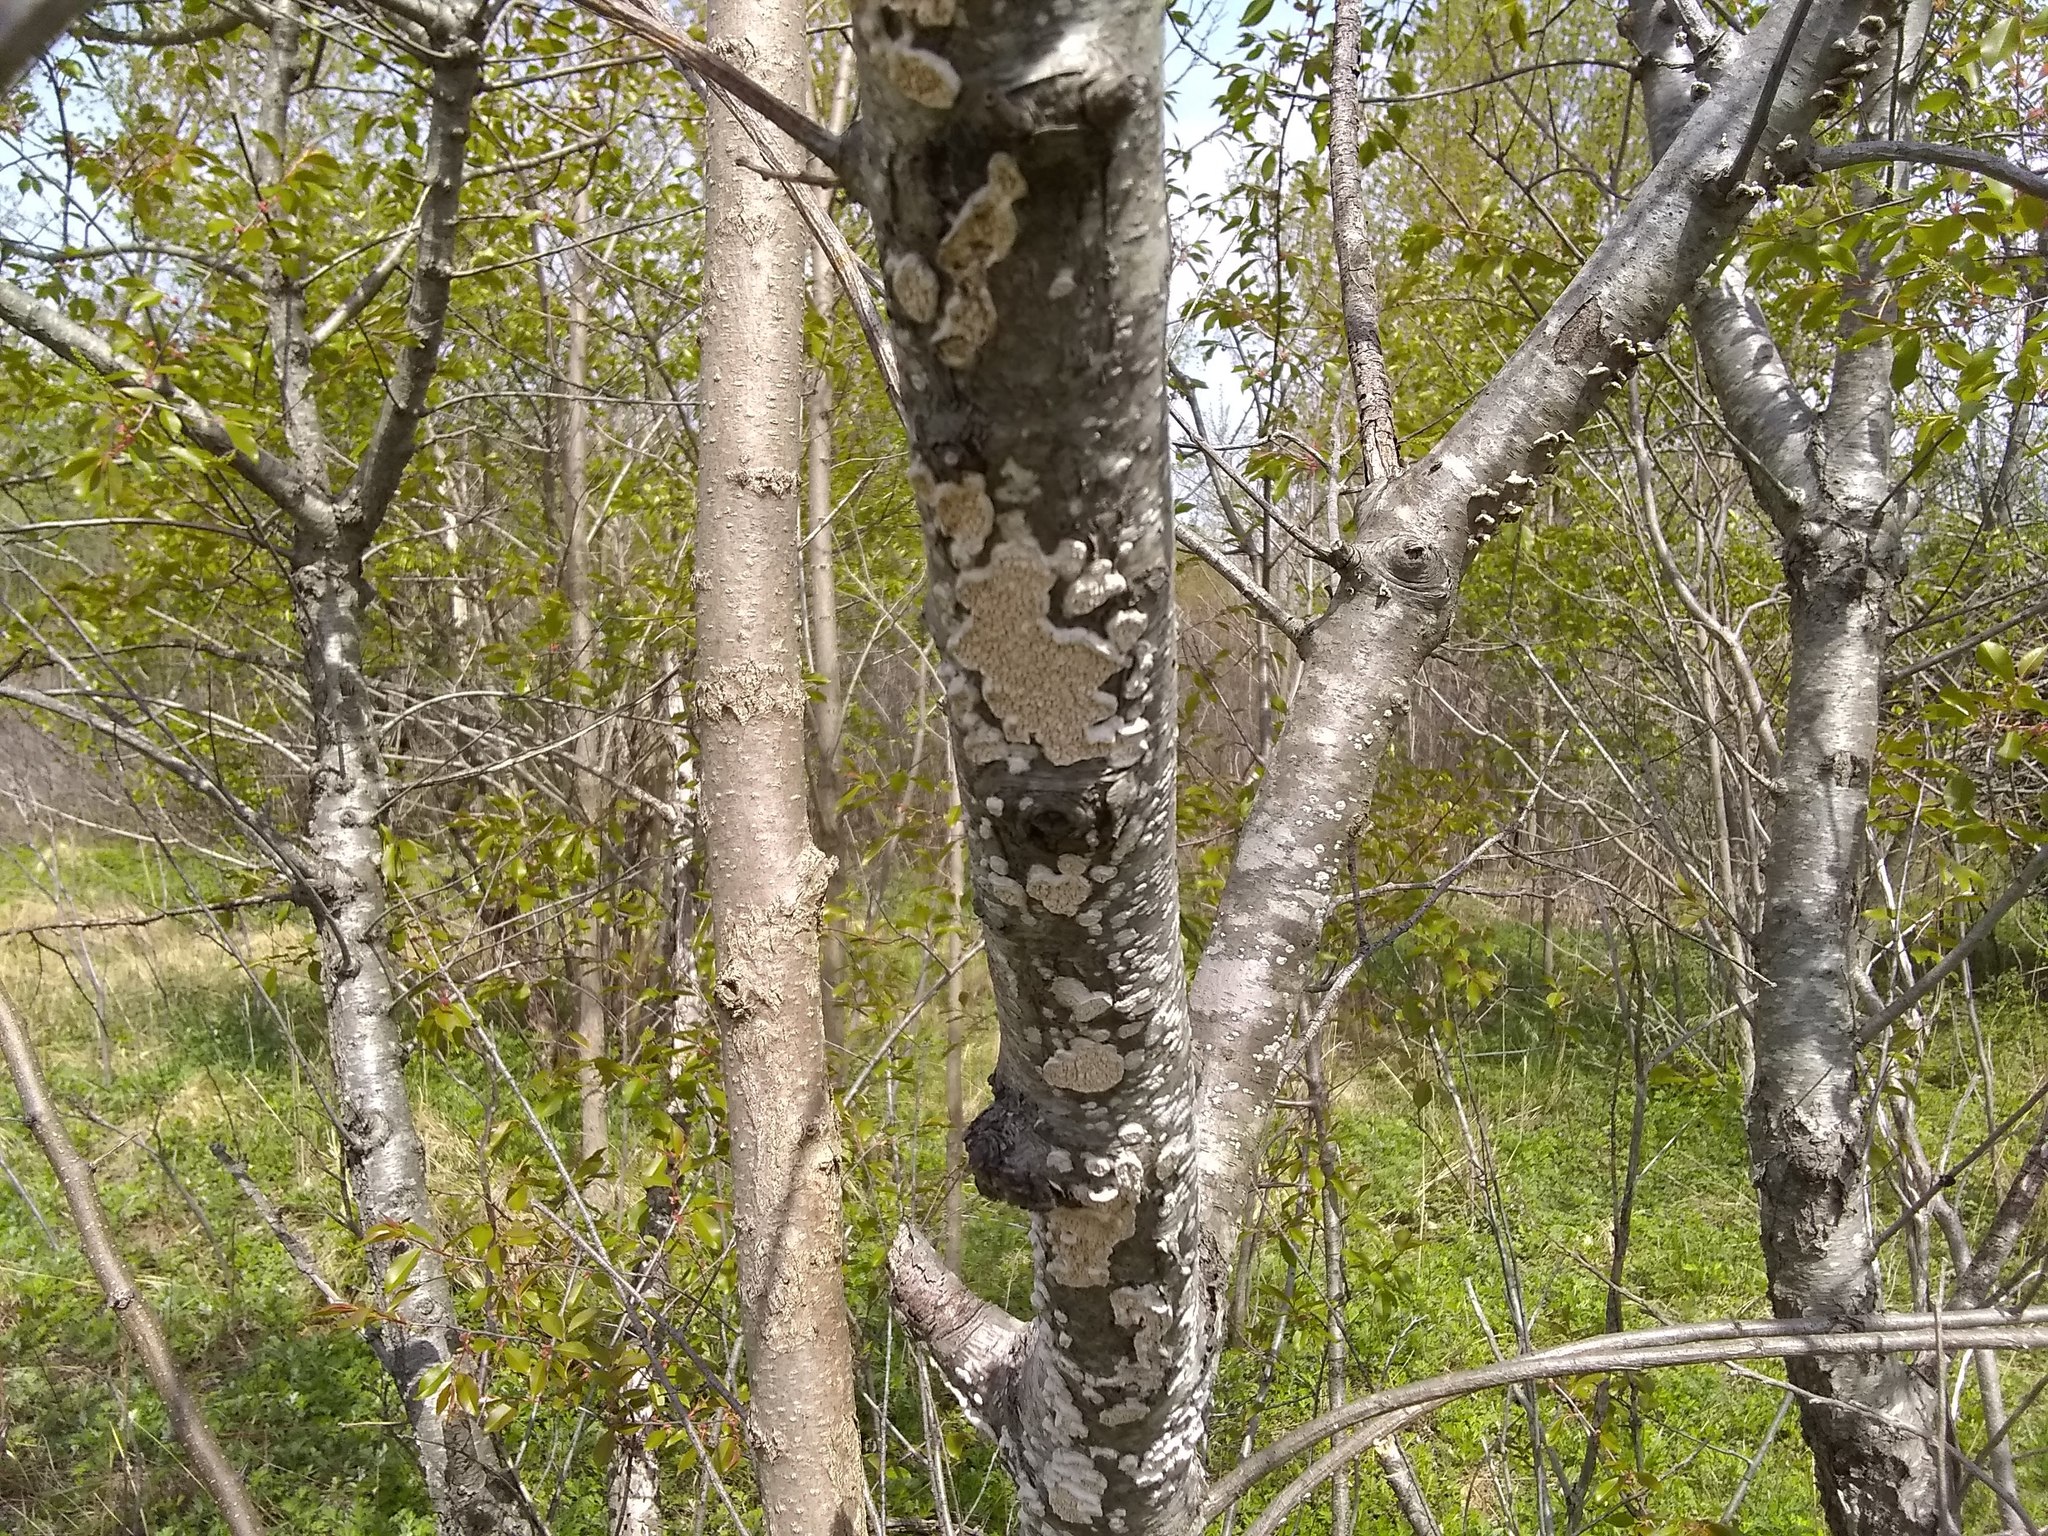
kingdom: Fungi
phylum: Basidiomycota
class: Agaricomycetes
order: Polyporales
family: Irpicaceae
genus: Irpex
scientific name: Irpex lacteus
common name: Milk-white toothed polypore
